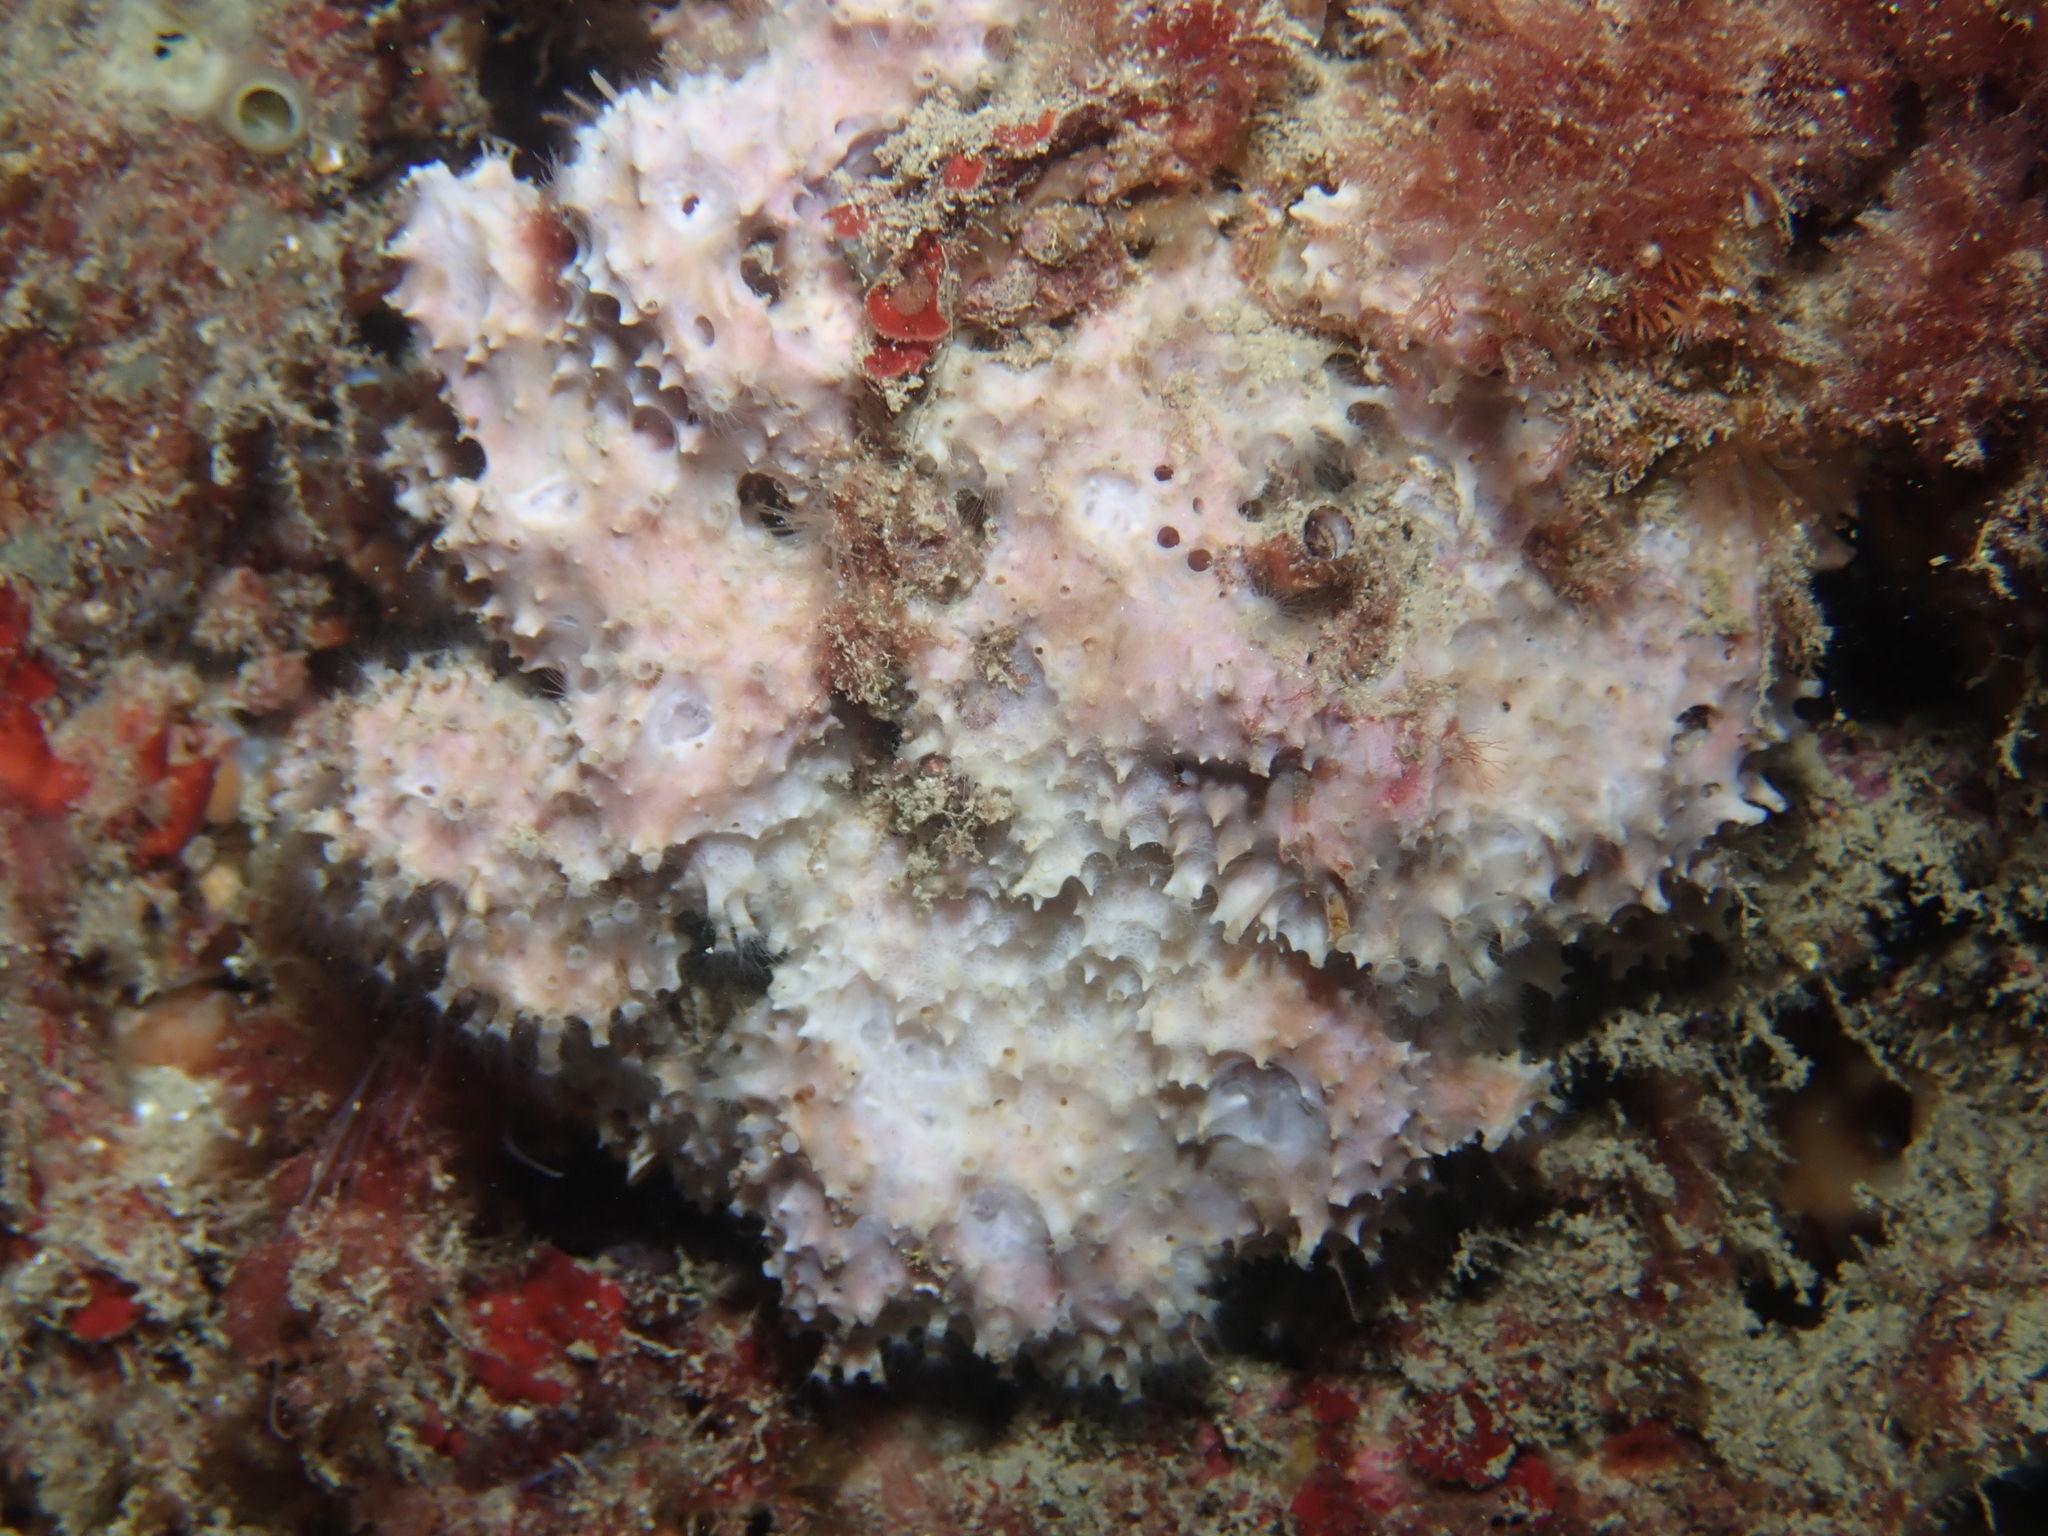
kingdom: Animalia
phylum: Porifera
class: Demospongiae
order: Dictyoceratida
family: Dysideidae
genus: Dysidea
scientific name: Dysidea avara
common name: Pink sponge
